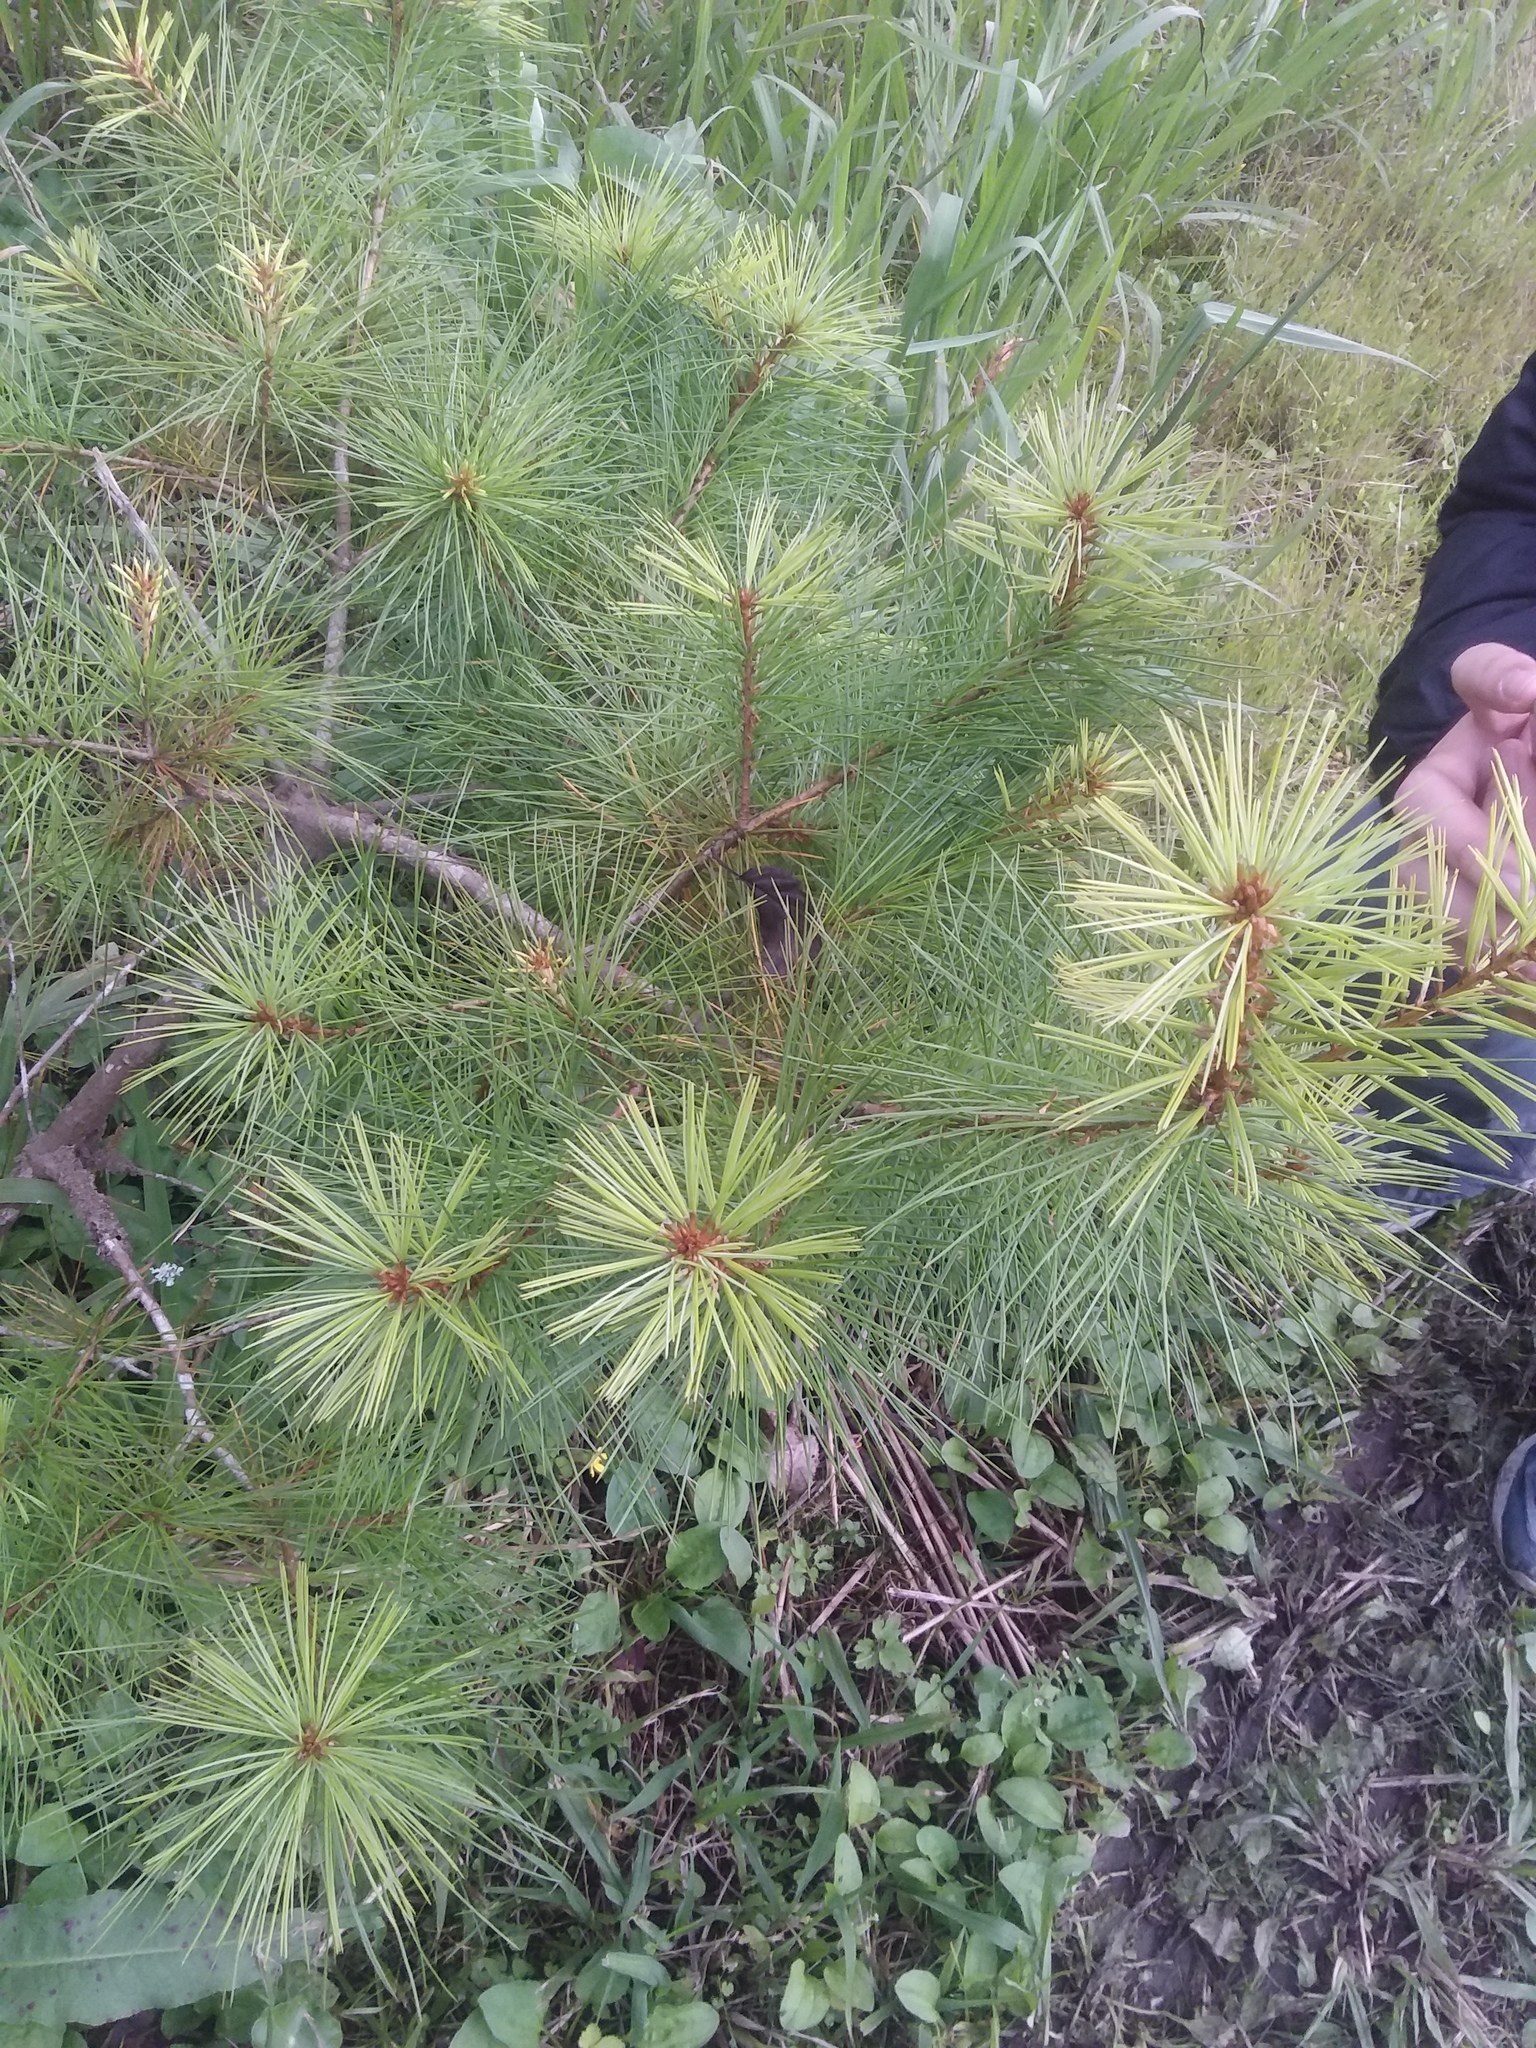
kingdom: Plantae
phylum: Tracheophyta
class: Pinopsida
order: Pinales
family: Pinaceae
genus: Pinus
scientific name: Pinus morrisonicola
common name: Taiwan white pine
